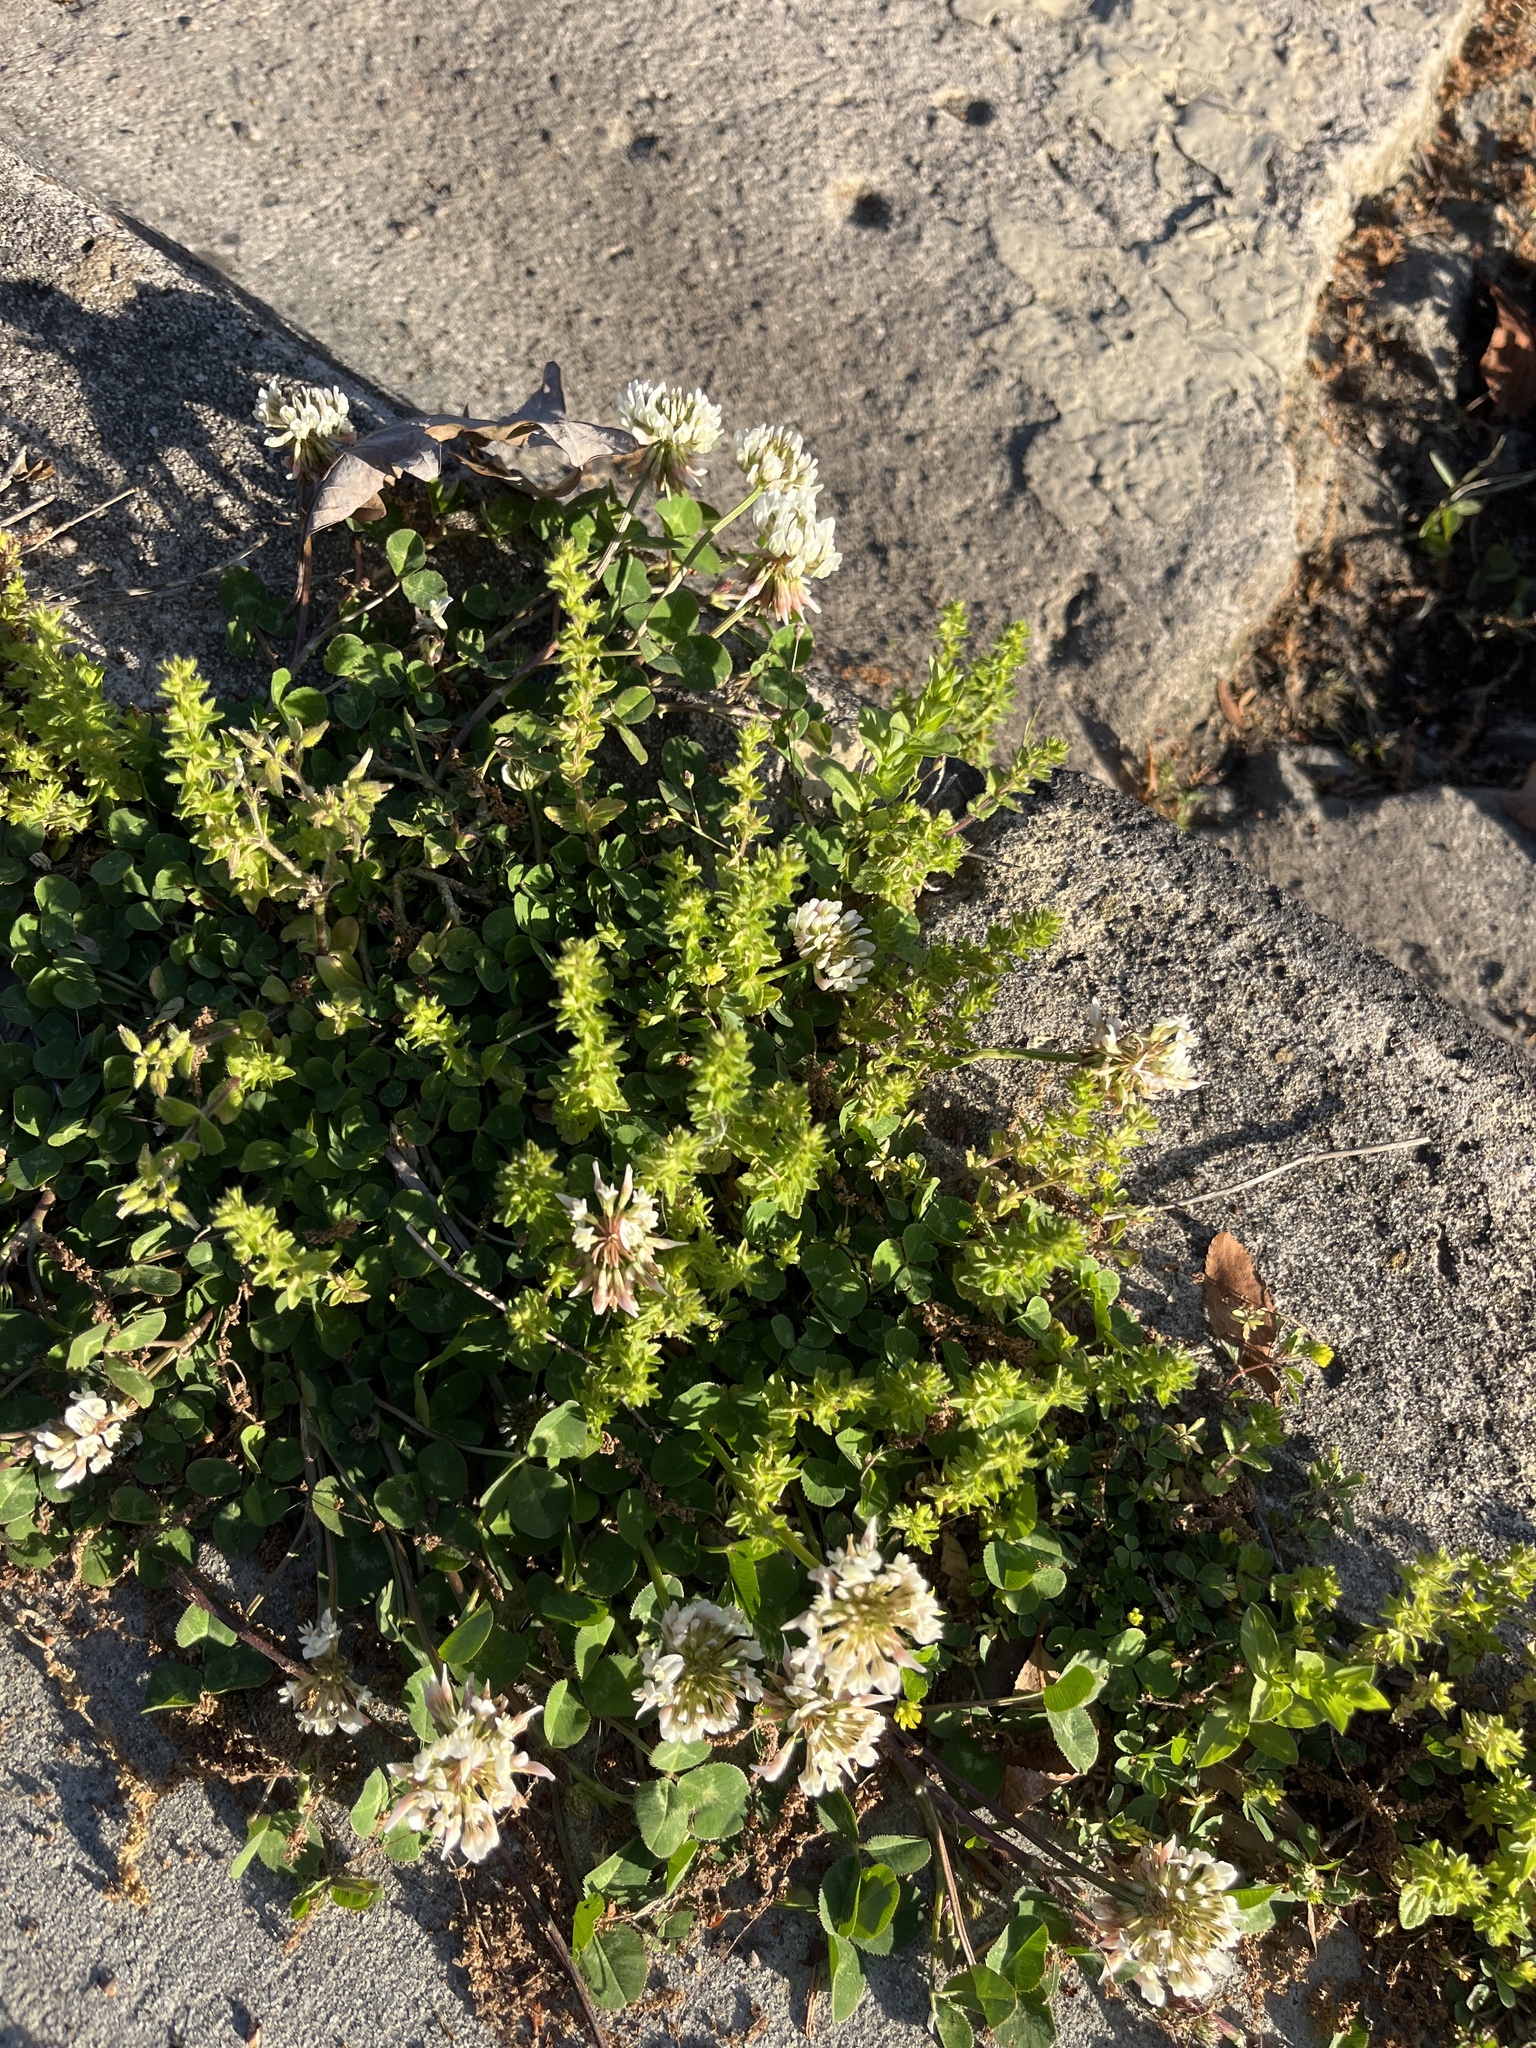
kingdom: Plantae
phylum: Tracheophyta
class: Magnoliopsida
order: Fabales
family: Fabaceae
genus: Trifolium
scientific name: Trifolium repens
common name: White clover
